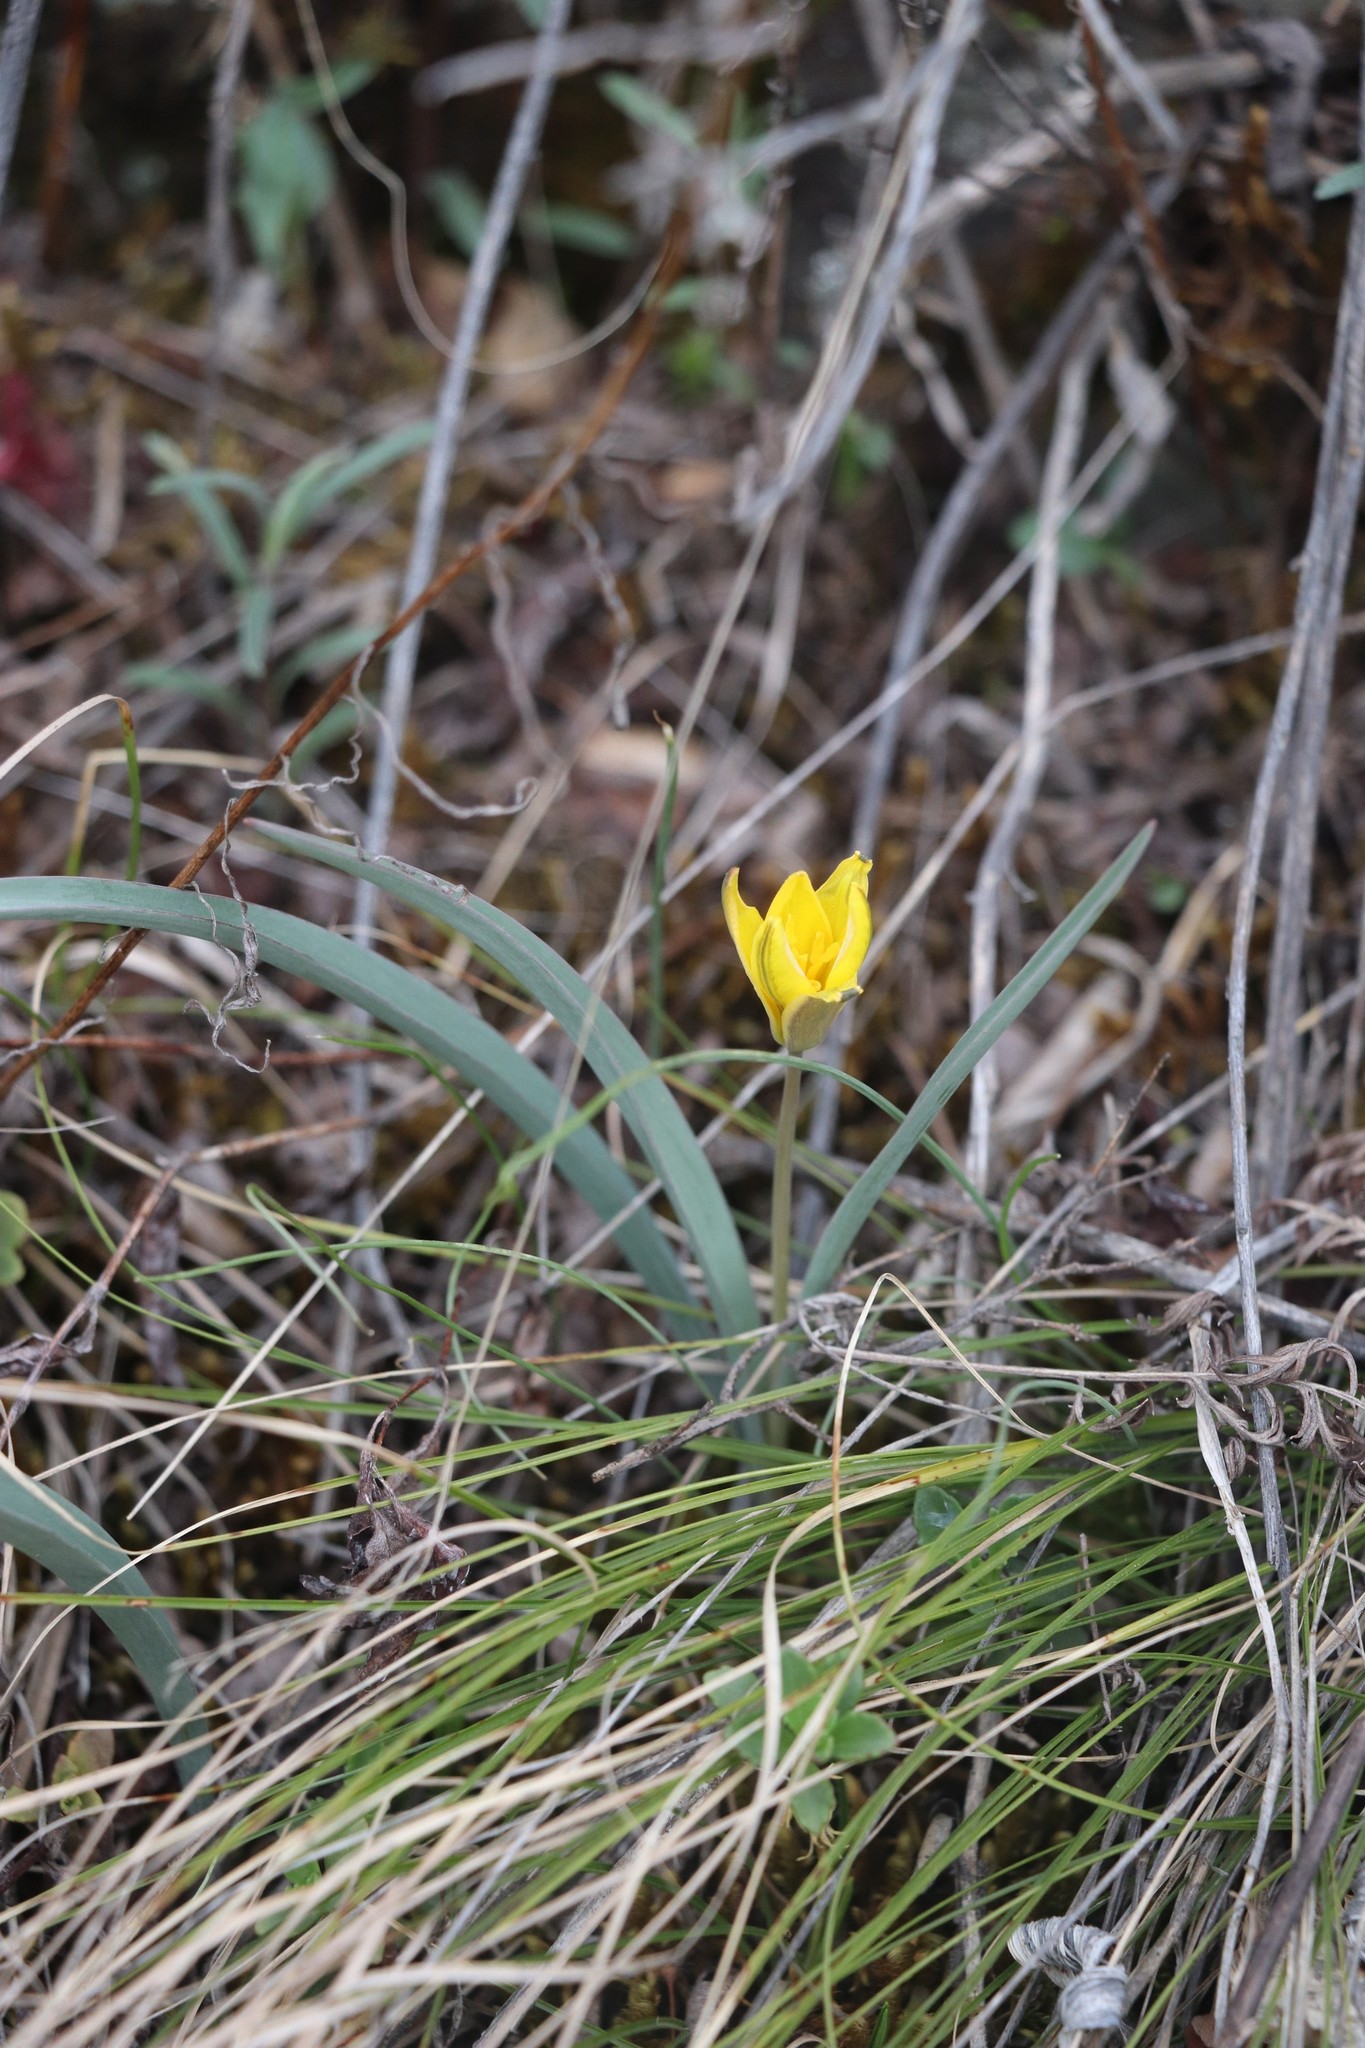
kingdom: Plantae
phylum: Tracheophyta
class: Liliopsida
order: Liliales
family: Liliaceae
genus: Tulipa
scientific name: Tulipa uniflora
